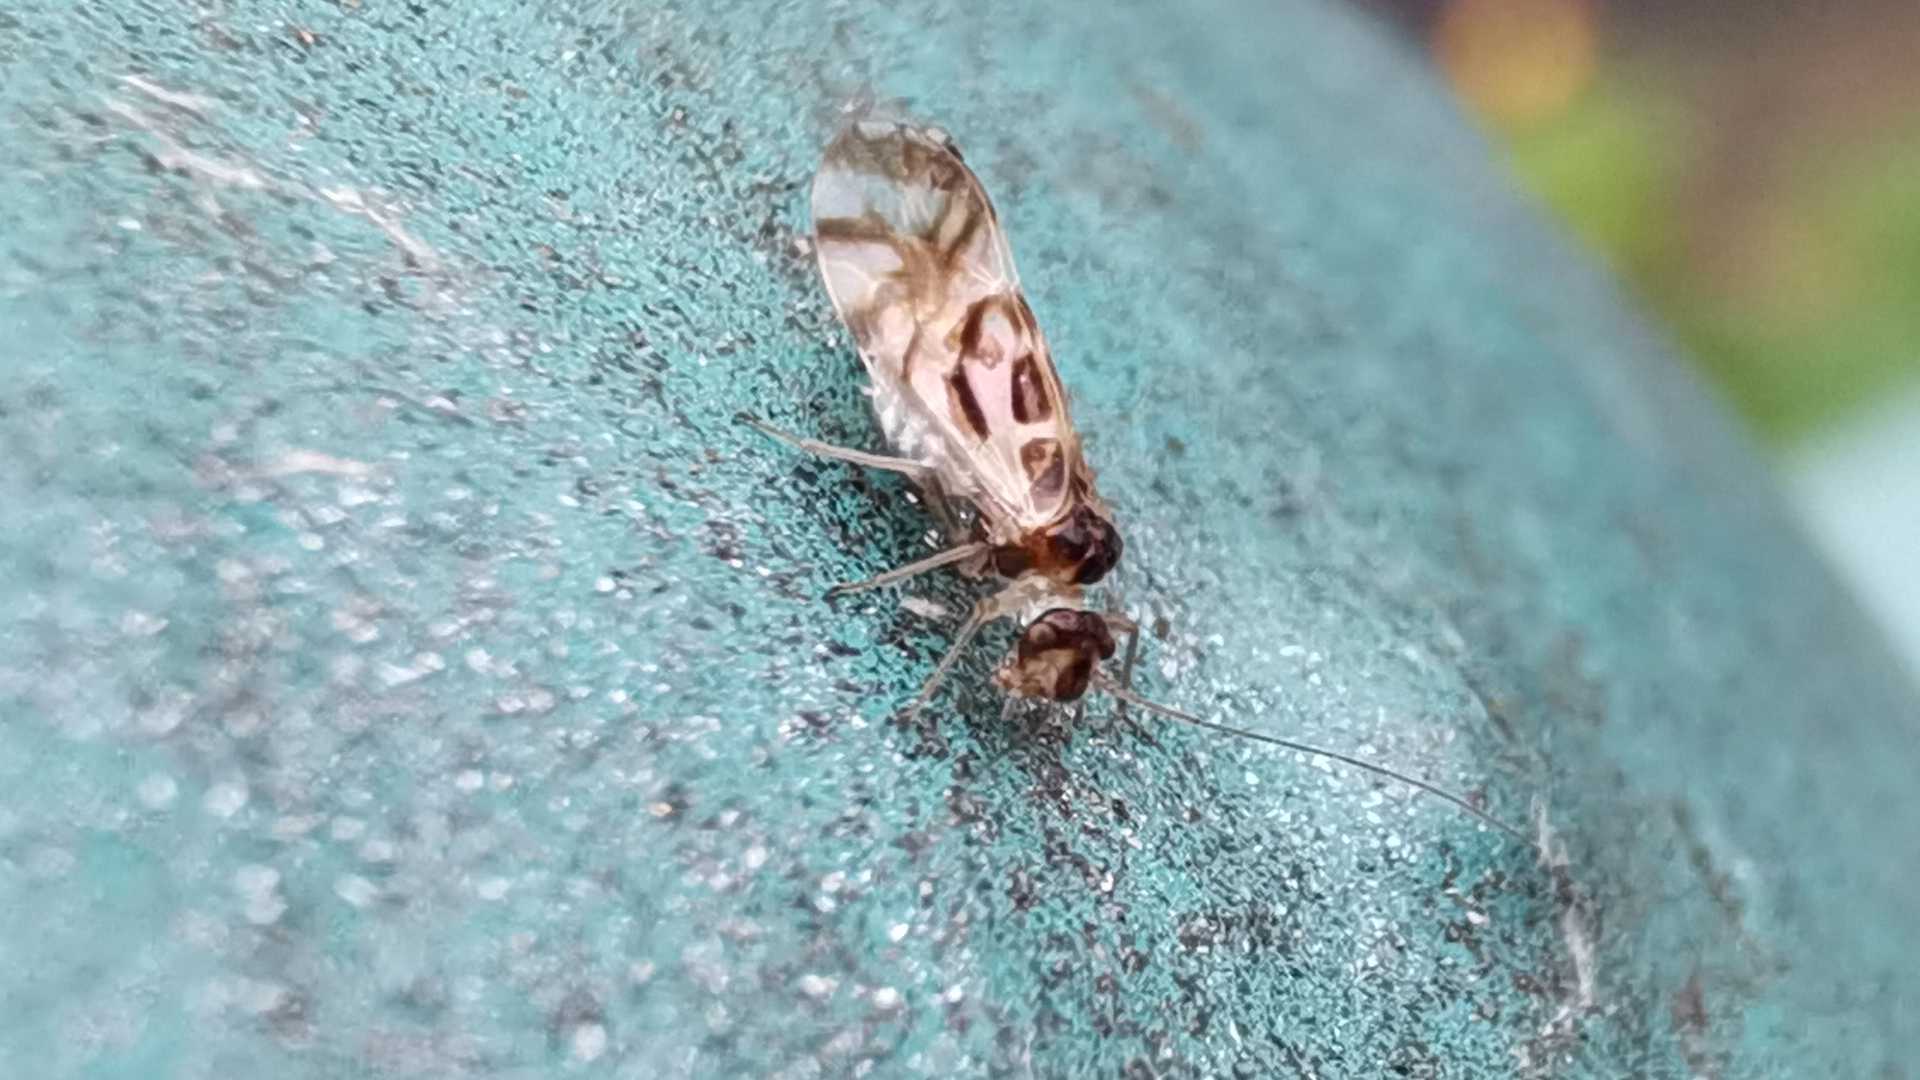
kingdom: Animalia
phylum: Arthropoda
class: Insecta
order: Psocodea
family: Stenopsocidae
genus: Graphopsocus
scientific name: Graphopsocus cruciatus
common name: Lizard bark louse
